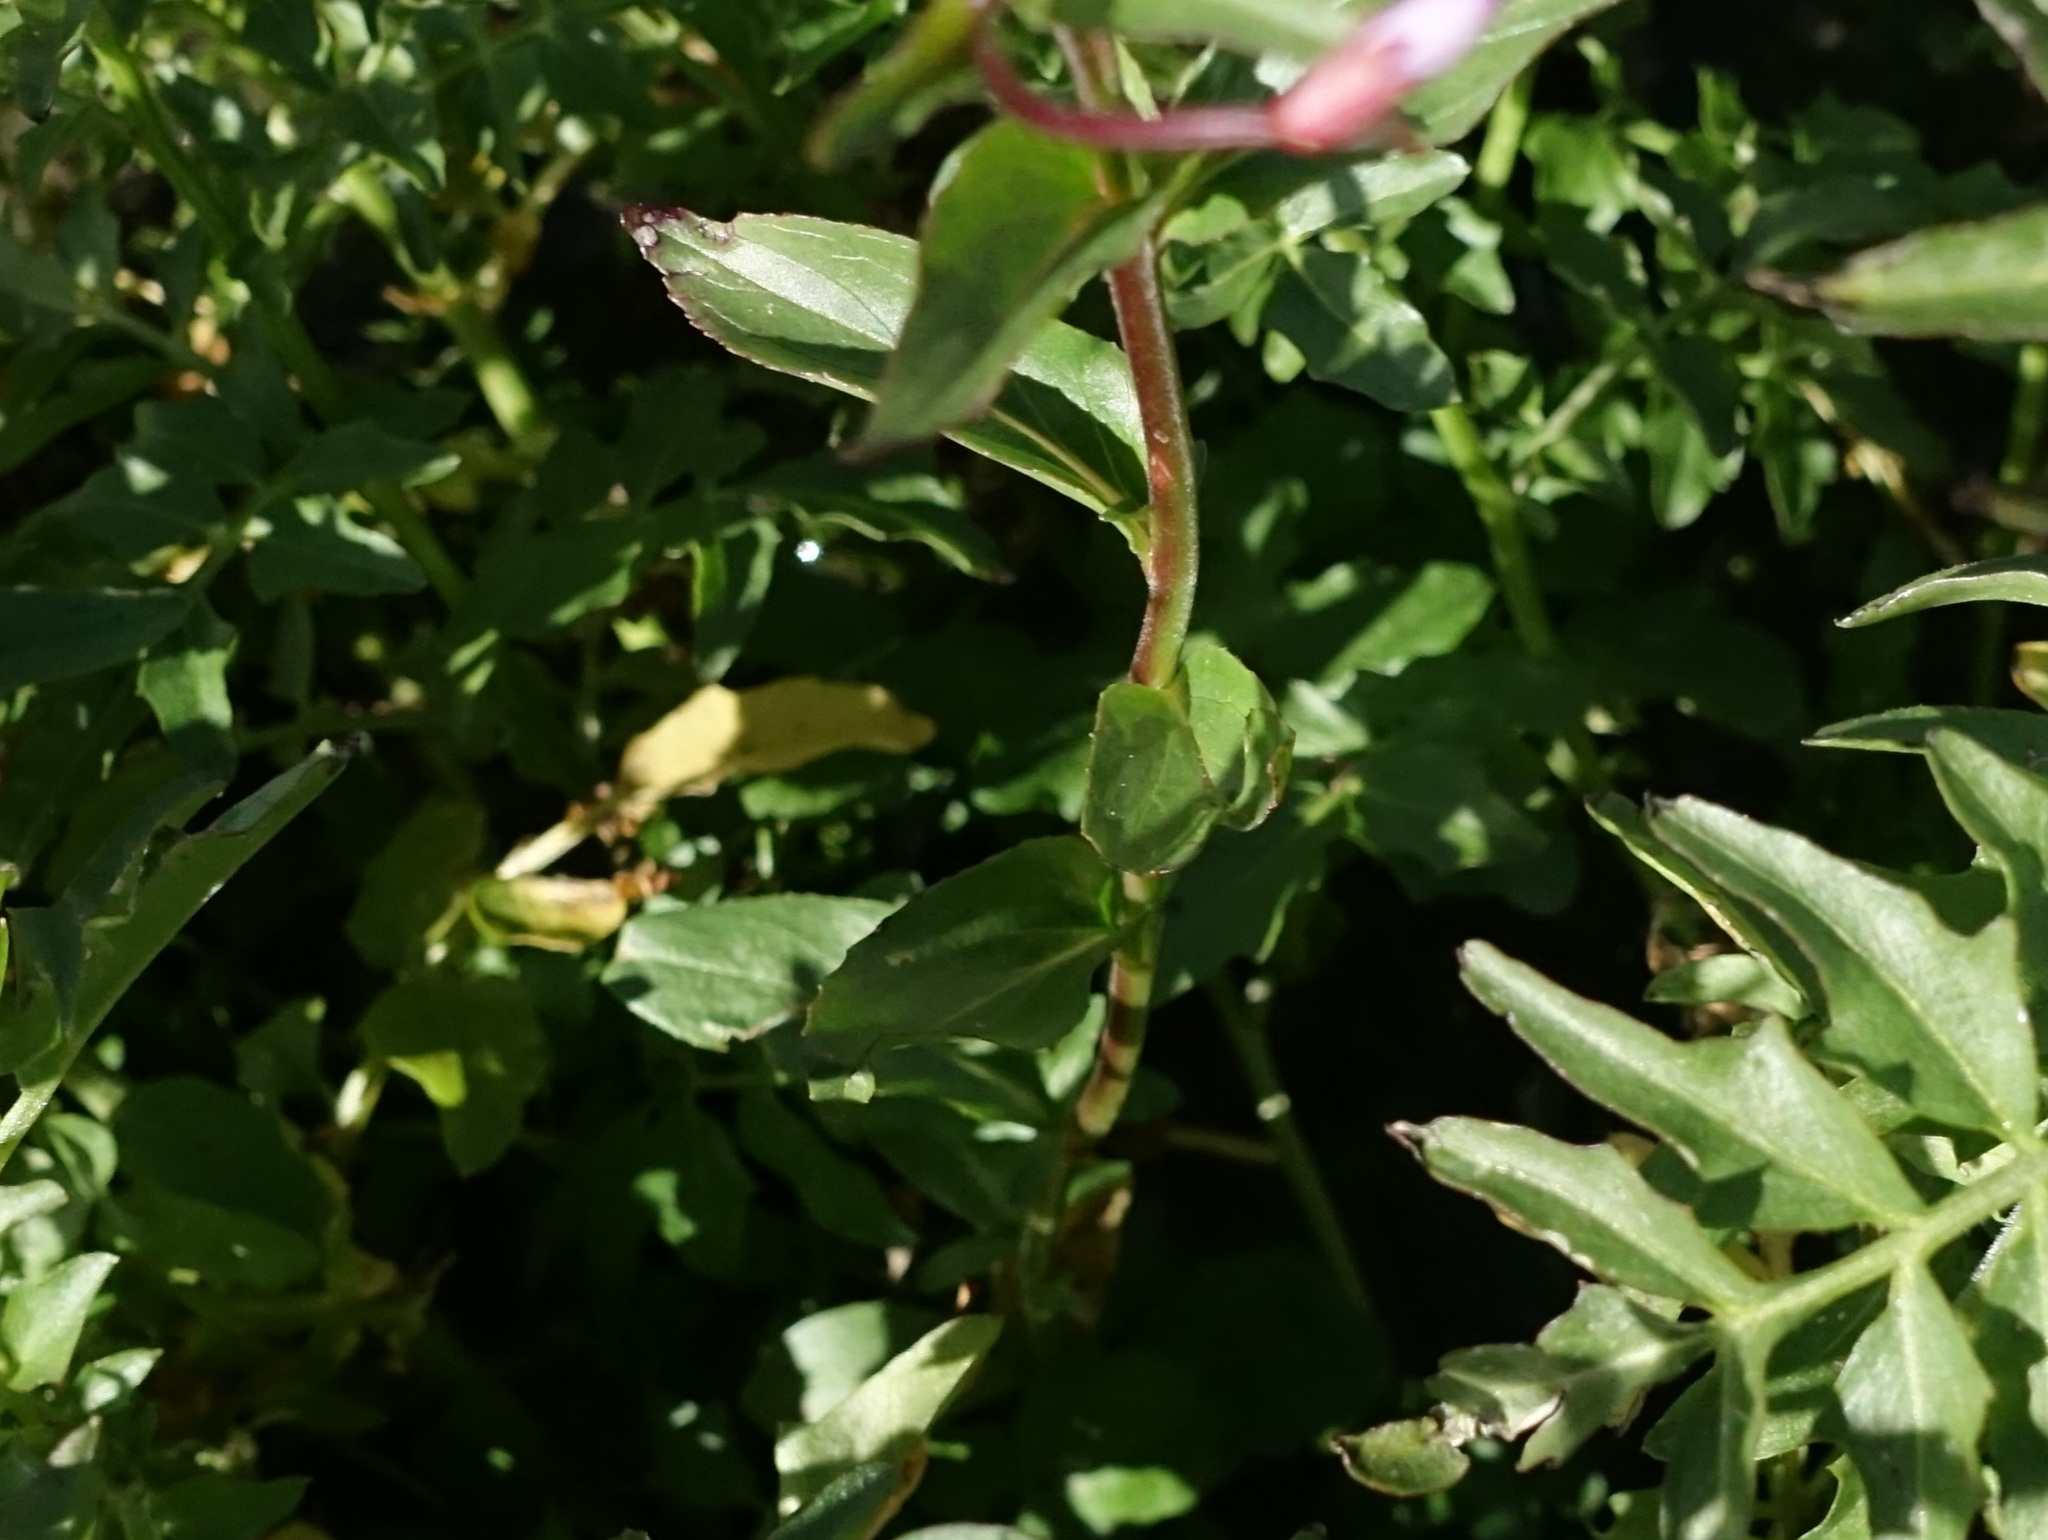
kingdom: Plantae
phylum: Tracheophyta
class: Magnoliopsida
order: Myrtales
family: Onagraceae
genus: Epilobium
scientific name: Epilobium alsinifolium
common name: Chickweed willowherb
